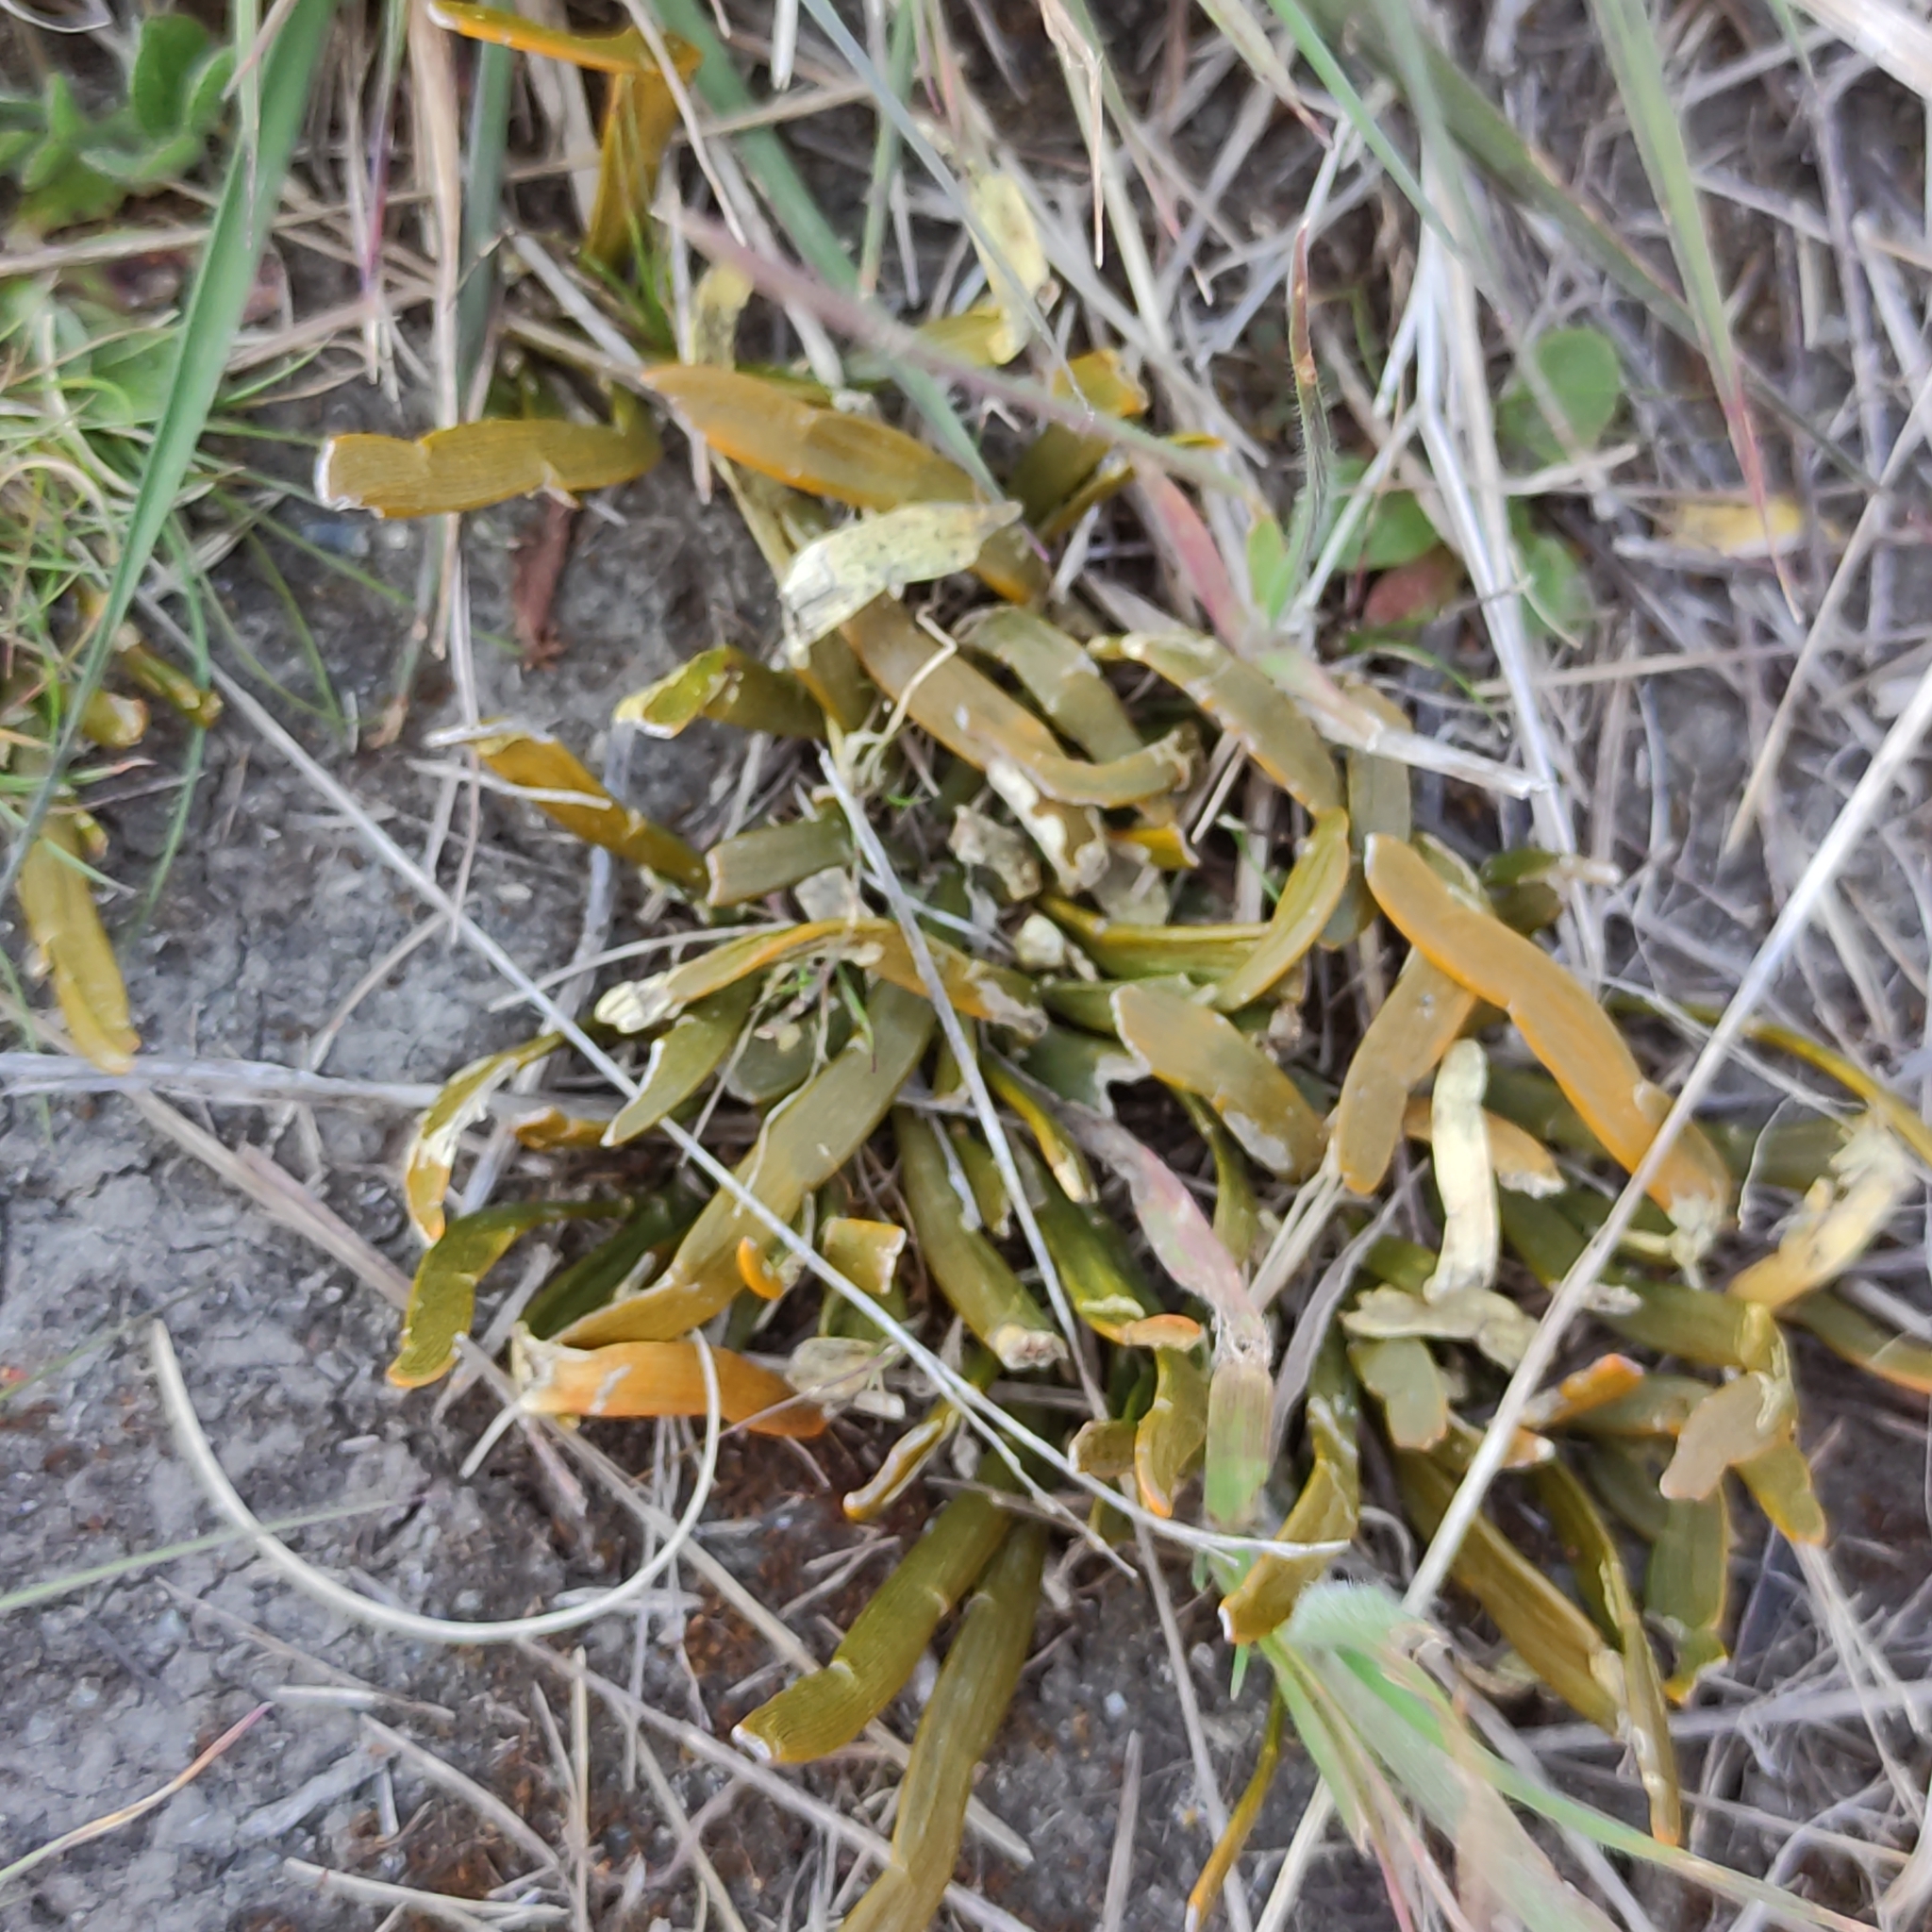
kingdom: Plantae
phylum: Tracheophyta
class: Magnoliopsida
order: Fabales
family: Fabaceae
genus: Carmichaelia
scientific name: Carmichaelia corrugata
